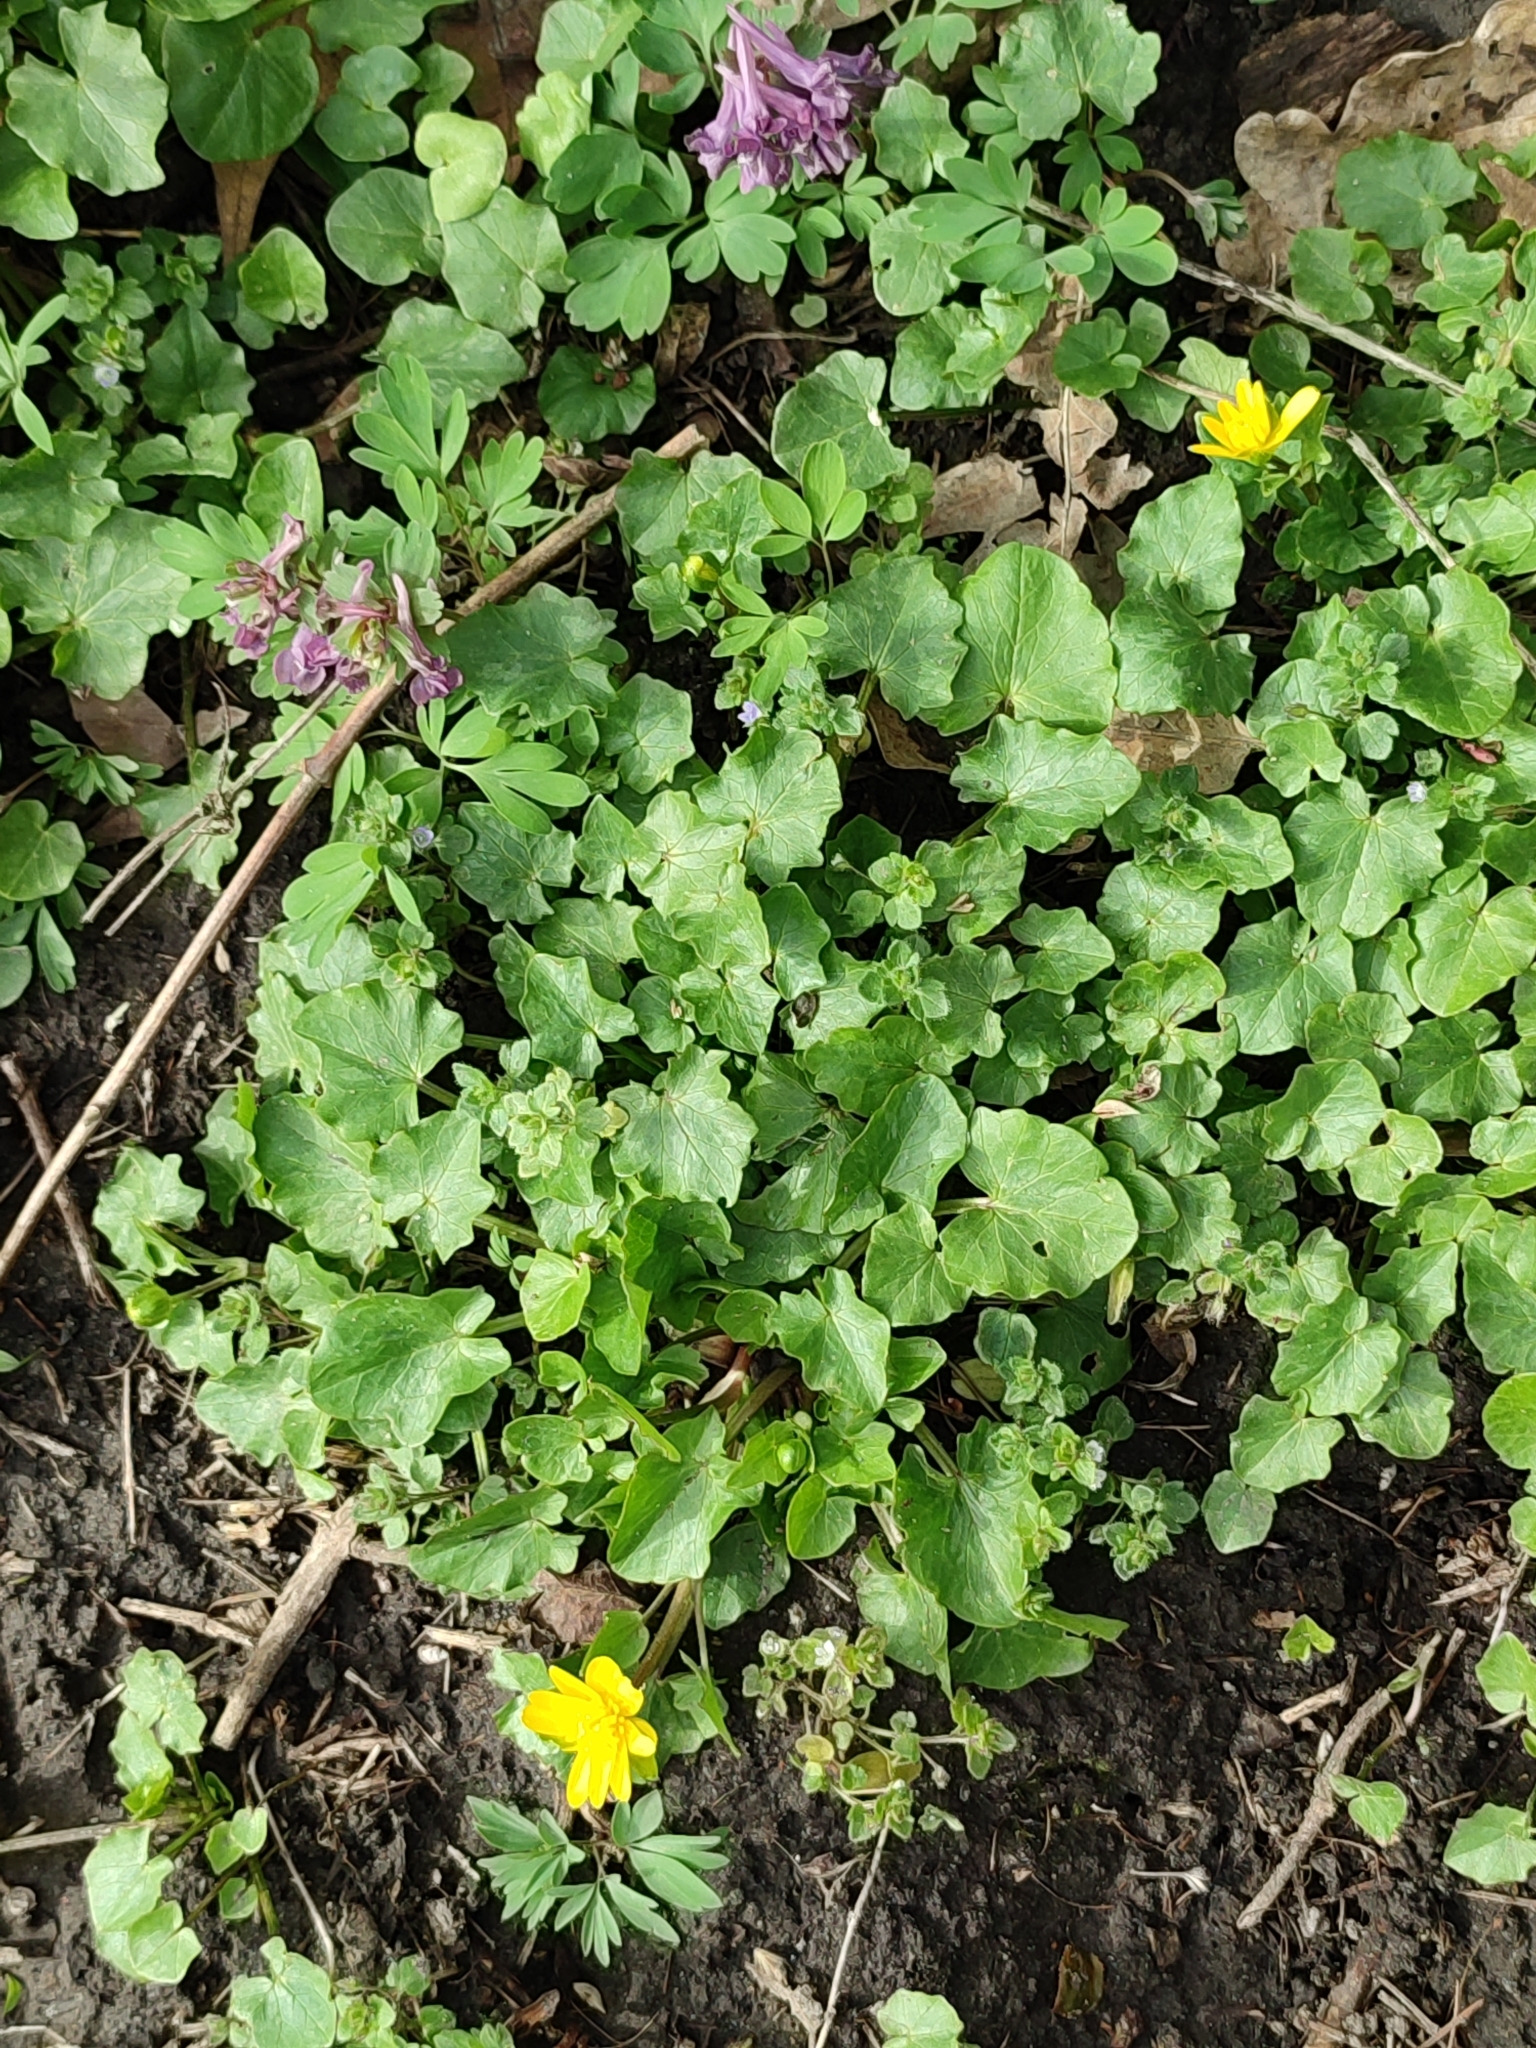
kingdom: Plantae
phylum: Tracheophyta
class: Magnoliopsida
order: Ranunculales
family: Ranunculaceae
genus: Ficaria
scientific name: Ficaria verna
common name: Lesser celandine
